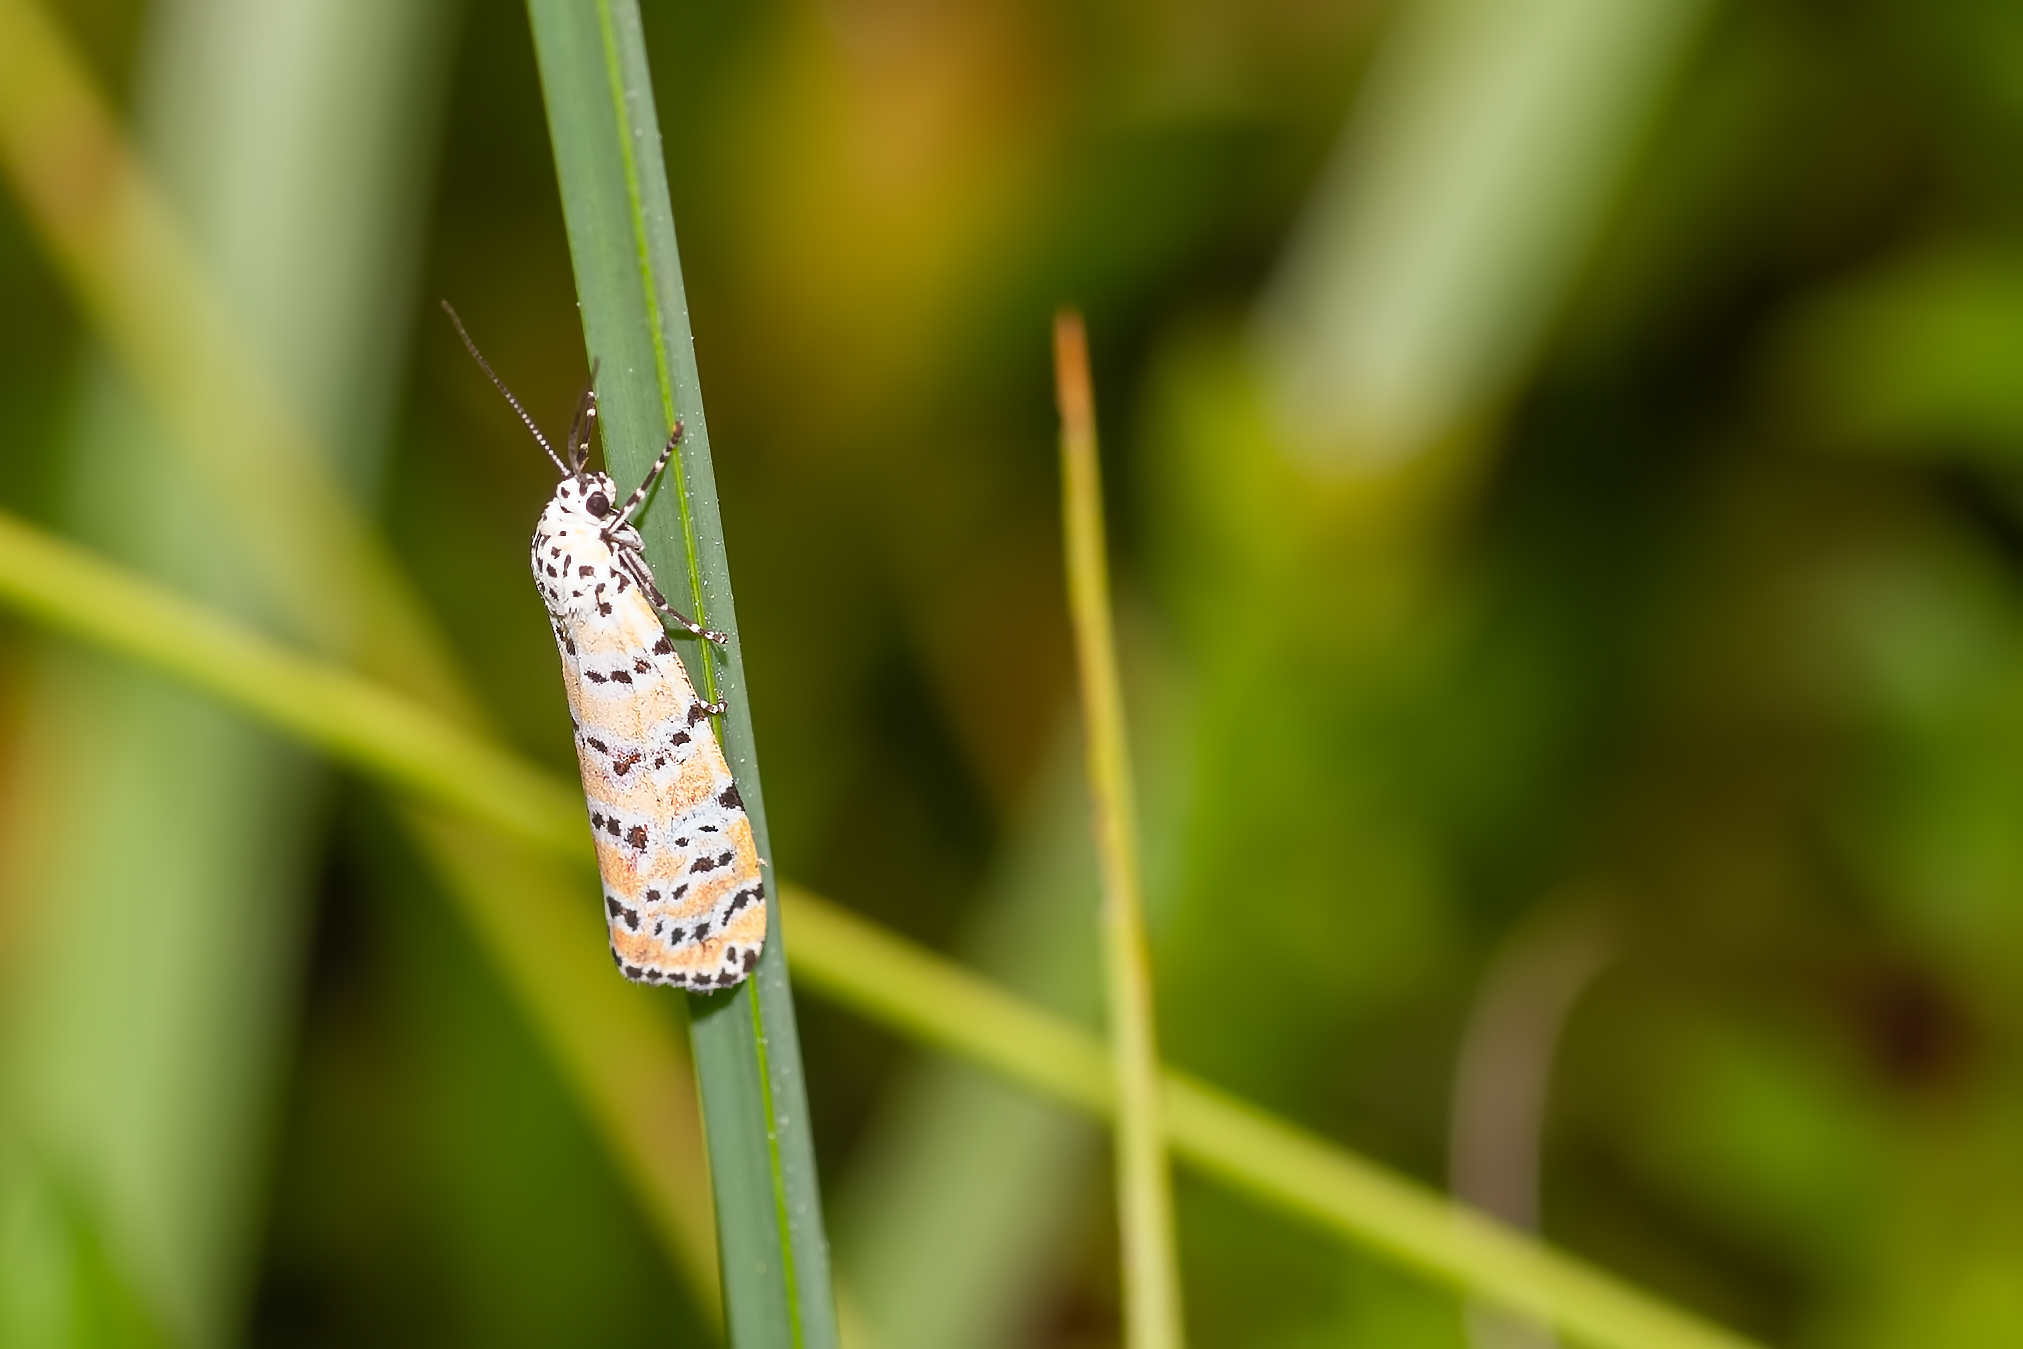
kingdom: Animalia
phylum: Arthropoda
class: Insecta
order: Lepidoptera
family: Erebidae
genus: Utetheisa
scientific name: Utetheisa ornatrix
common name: Beautiful utetheisa
